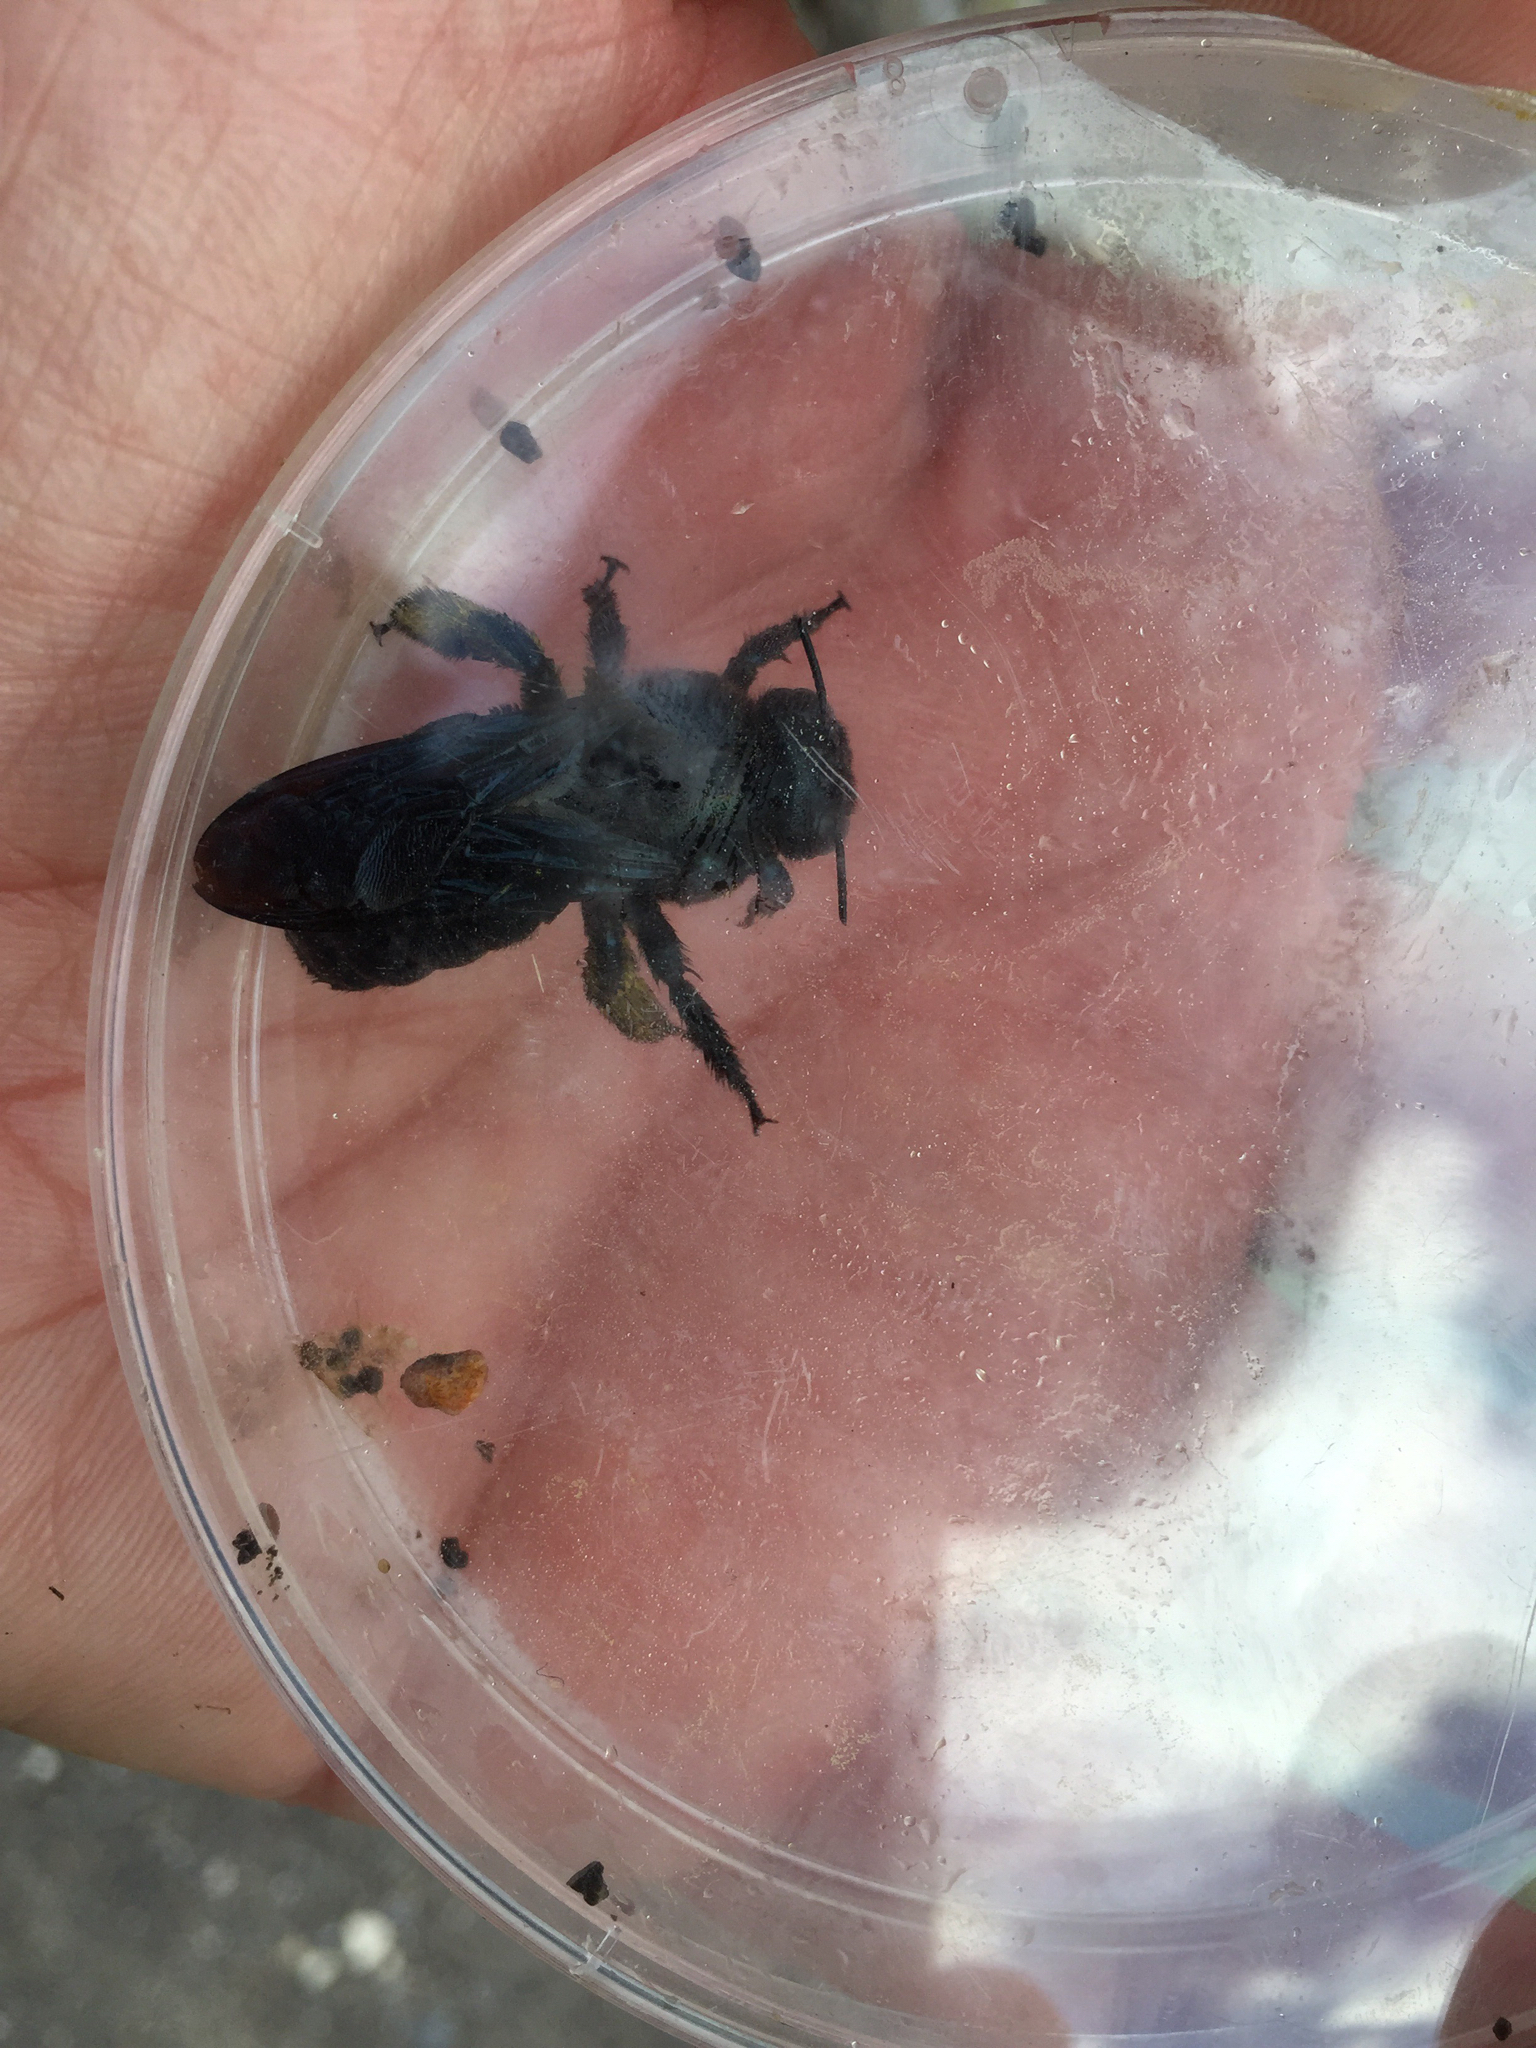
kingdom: Animalia
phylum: Arthropoda
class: Insecta
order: Hymenoptera
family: Apidae
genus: Xylocopa
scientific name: Xylocopa californica
